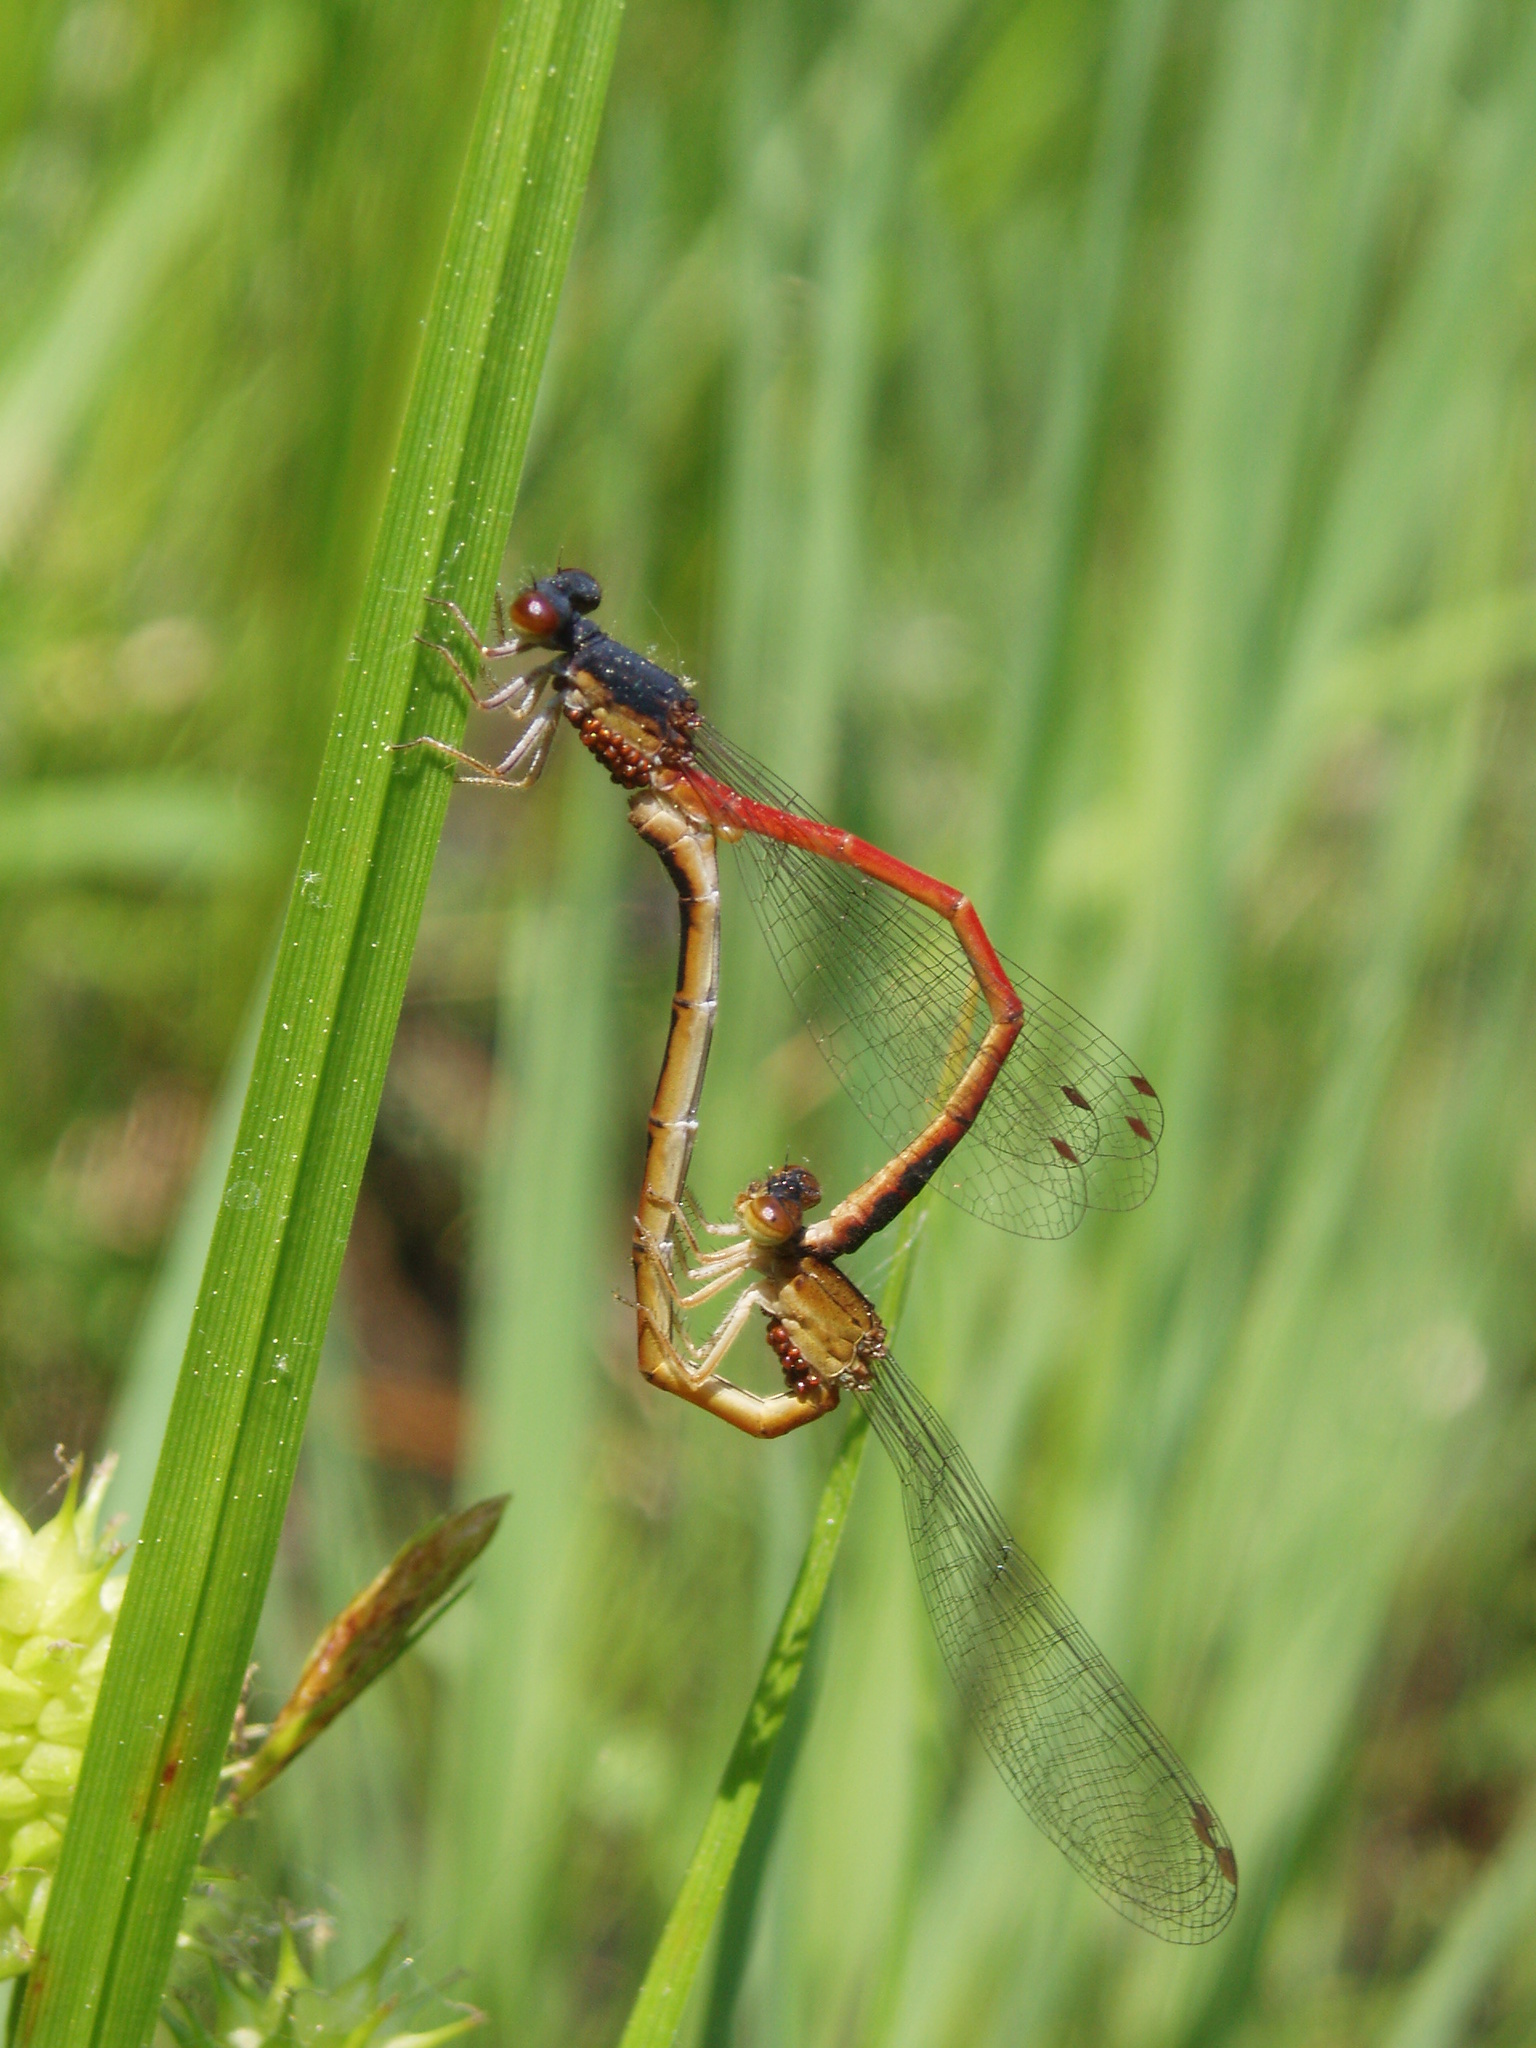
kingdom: Animalia
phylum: Arthropoda
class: Insecta
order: Odonata
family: Coenagrionidae
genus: Amphiagrion
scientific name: Amphiagrion saucium
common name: Eastern red damsel
